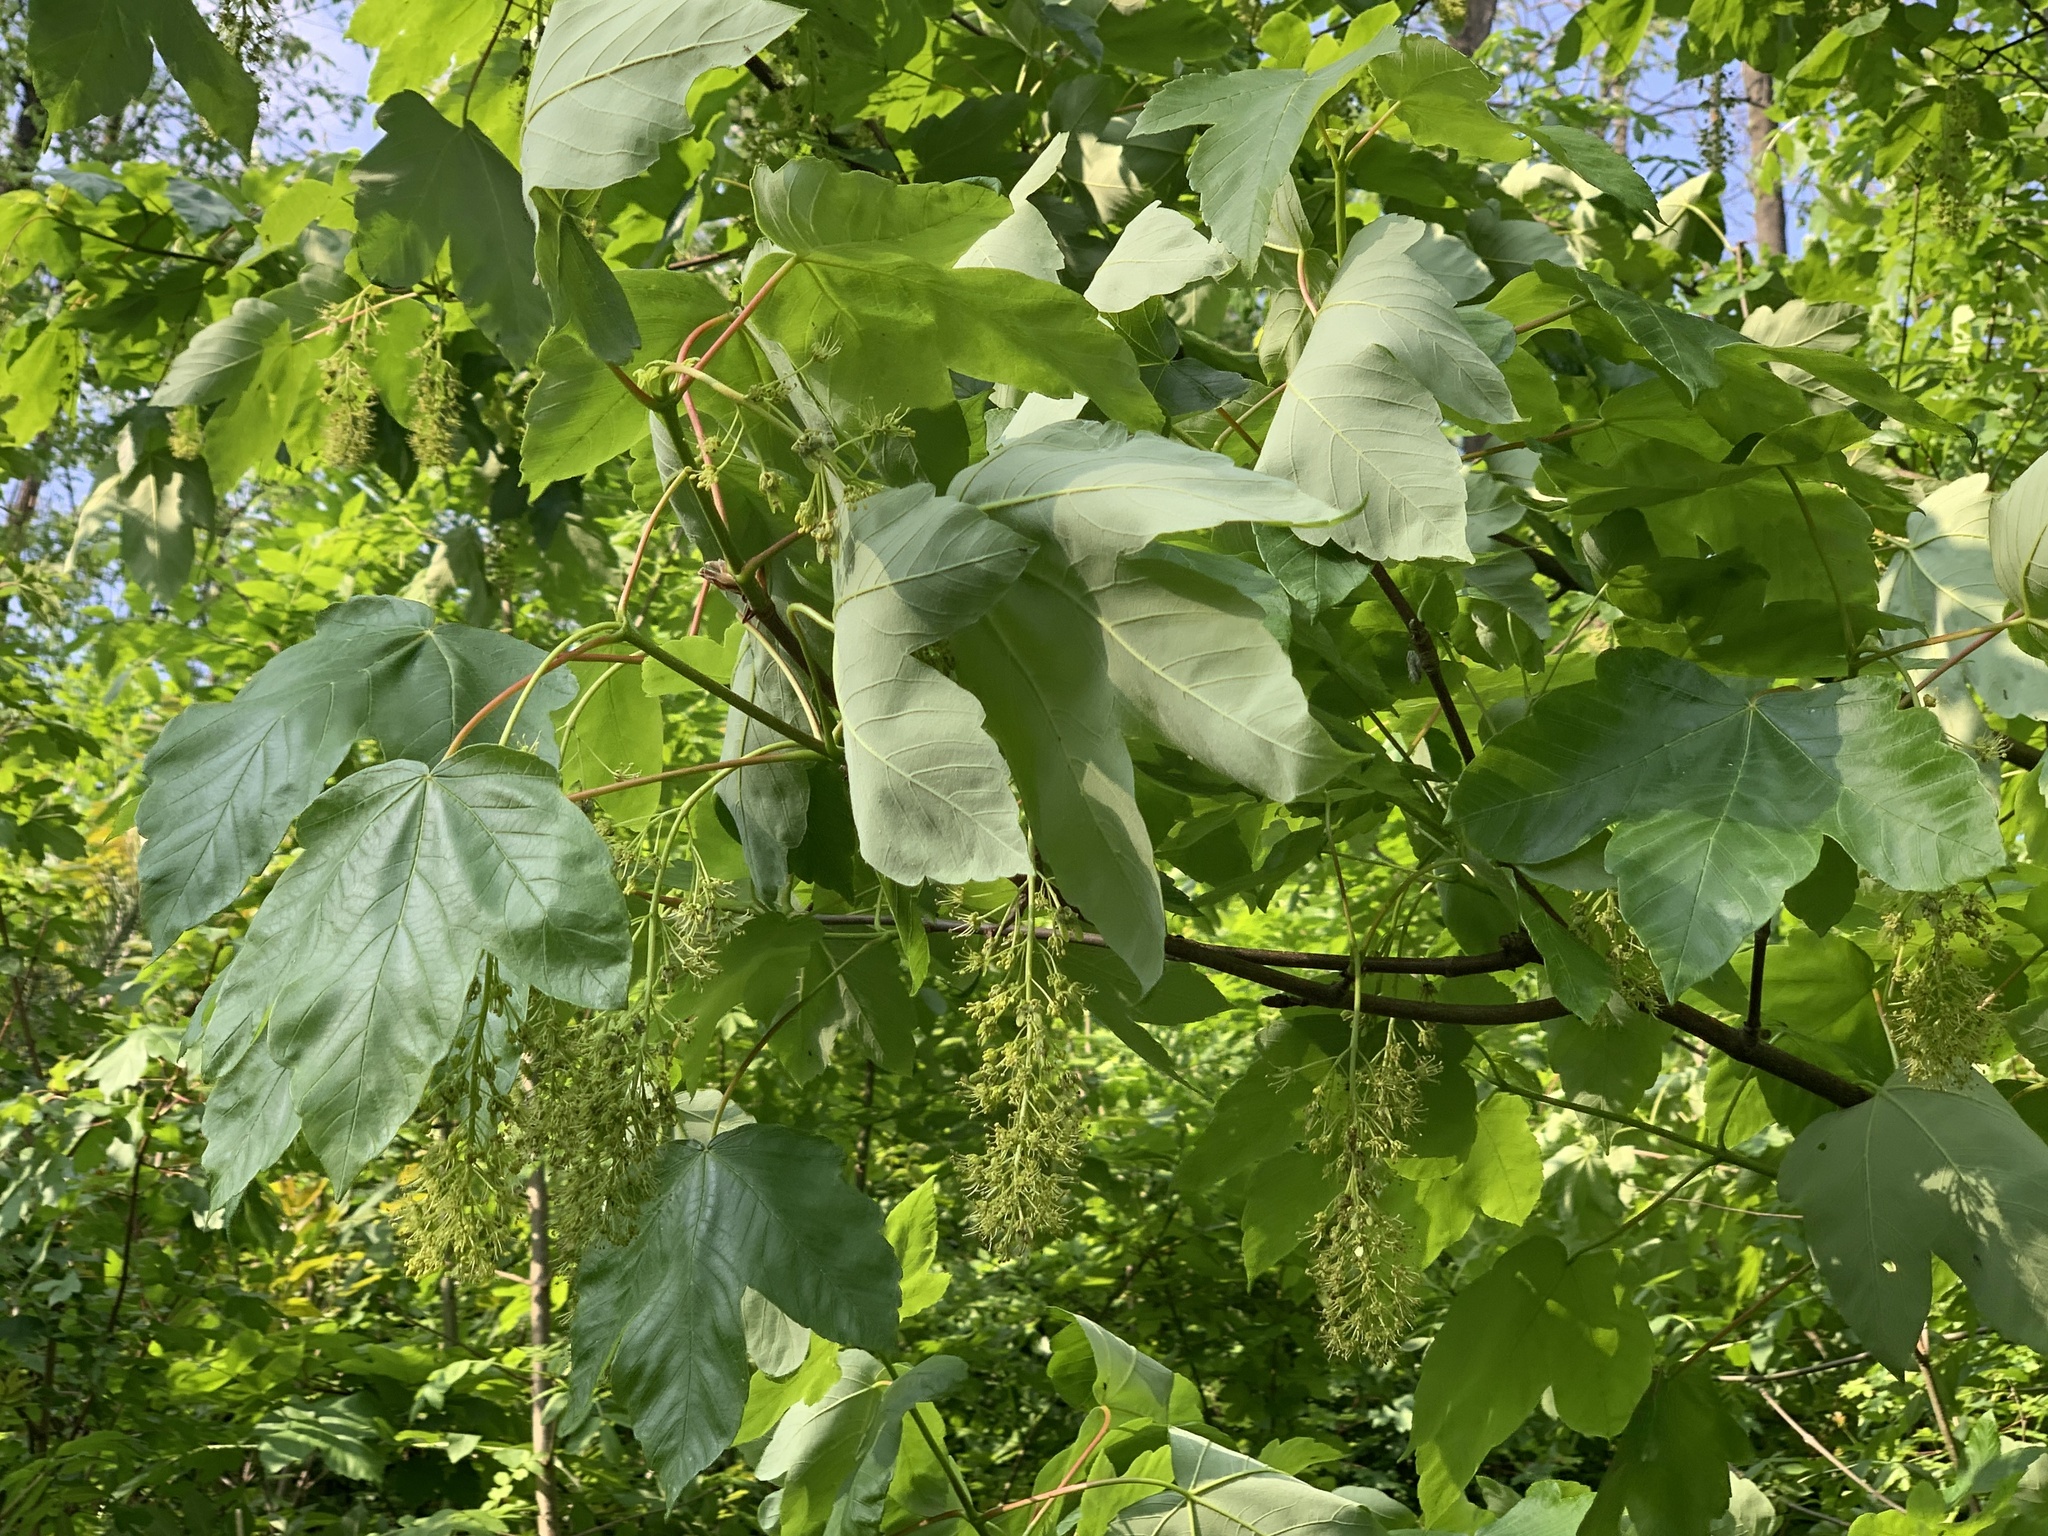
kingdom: Plantae
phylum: Tracheophyta
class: Magnoliopsida
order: Sapindales
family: Sapindaceae
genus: Acer
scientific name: Acer pseudoplatanus
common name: Sycamore
